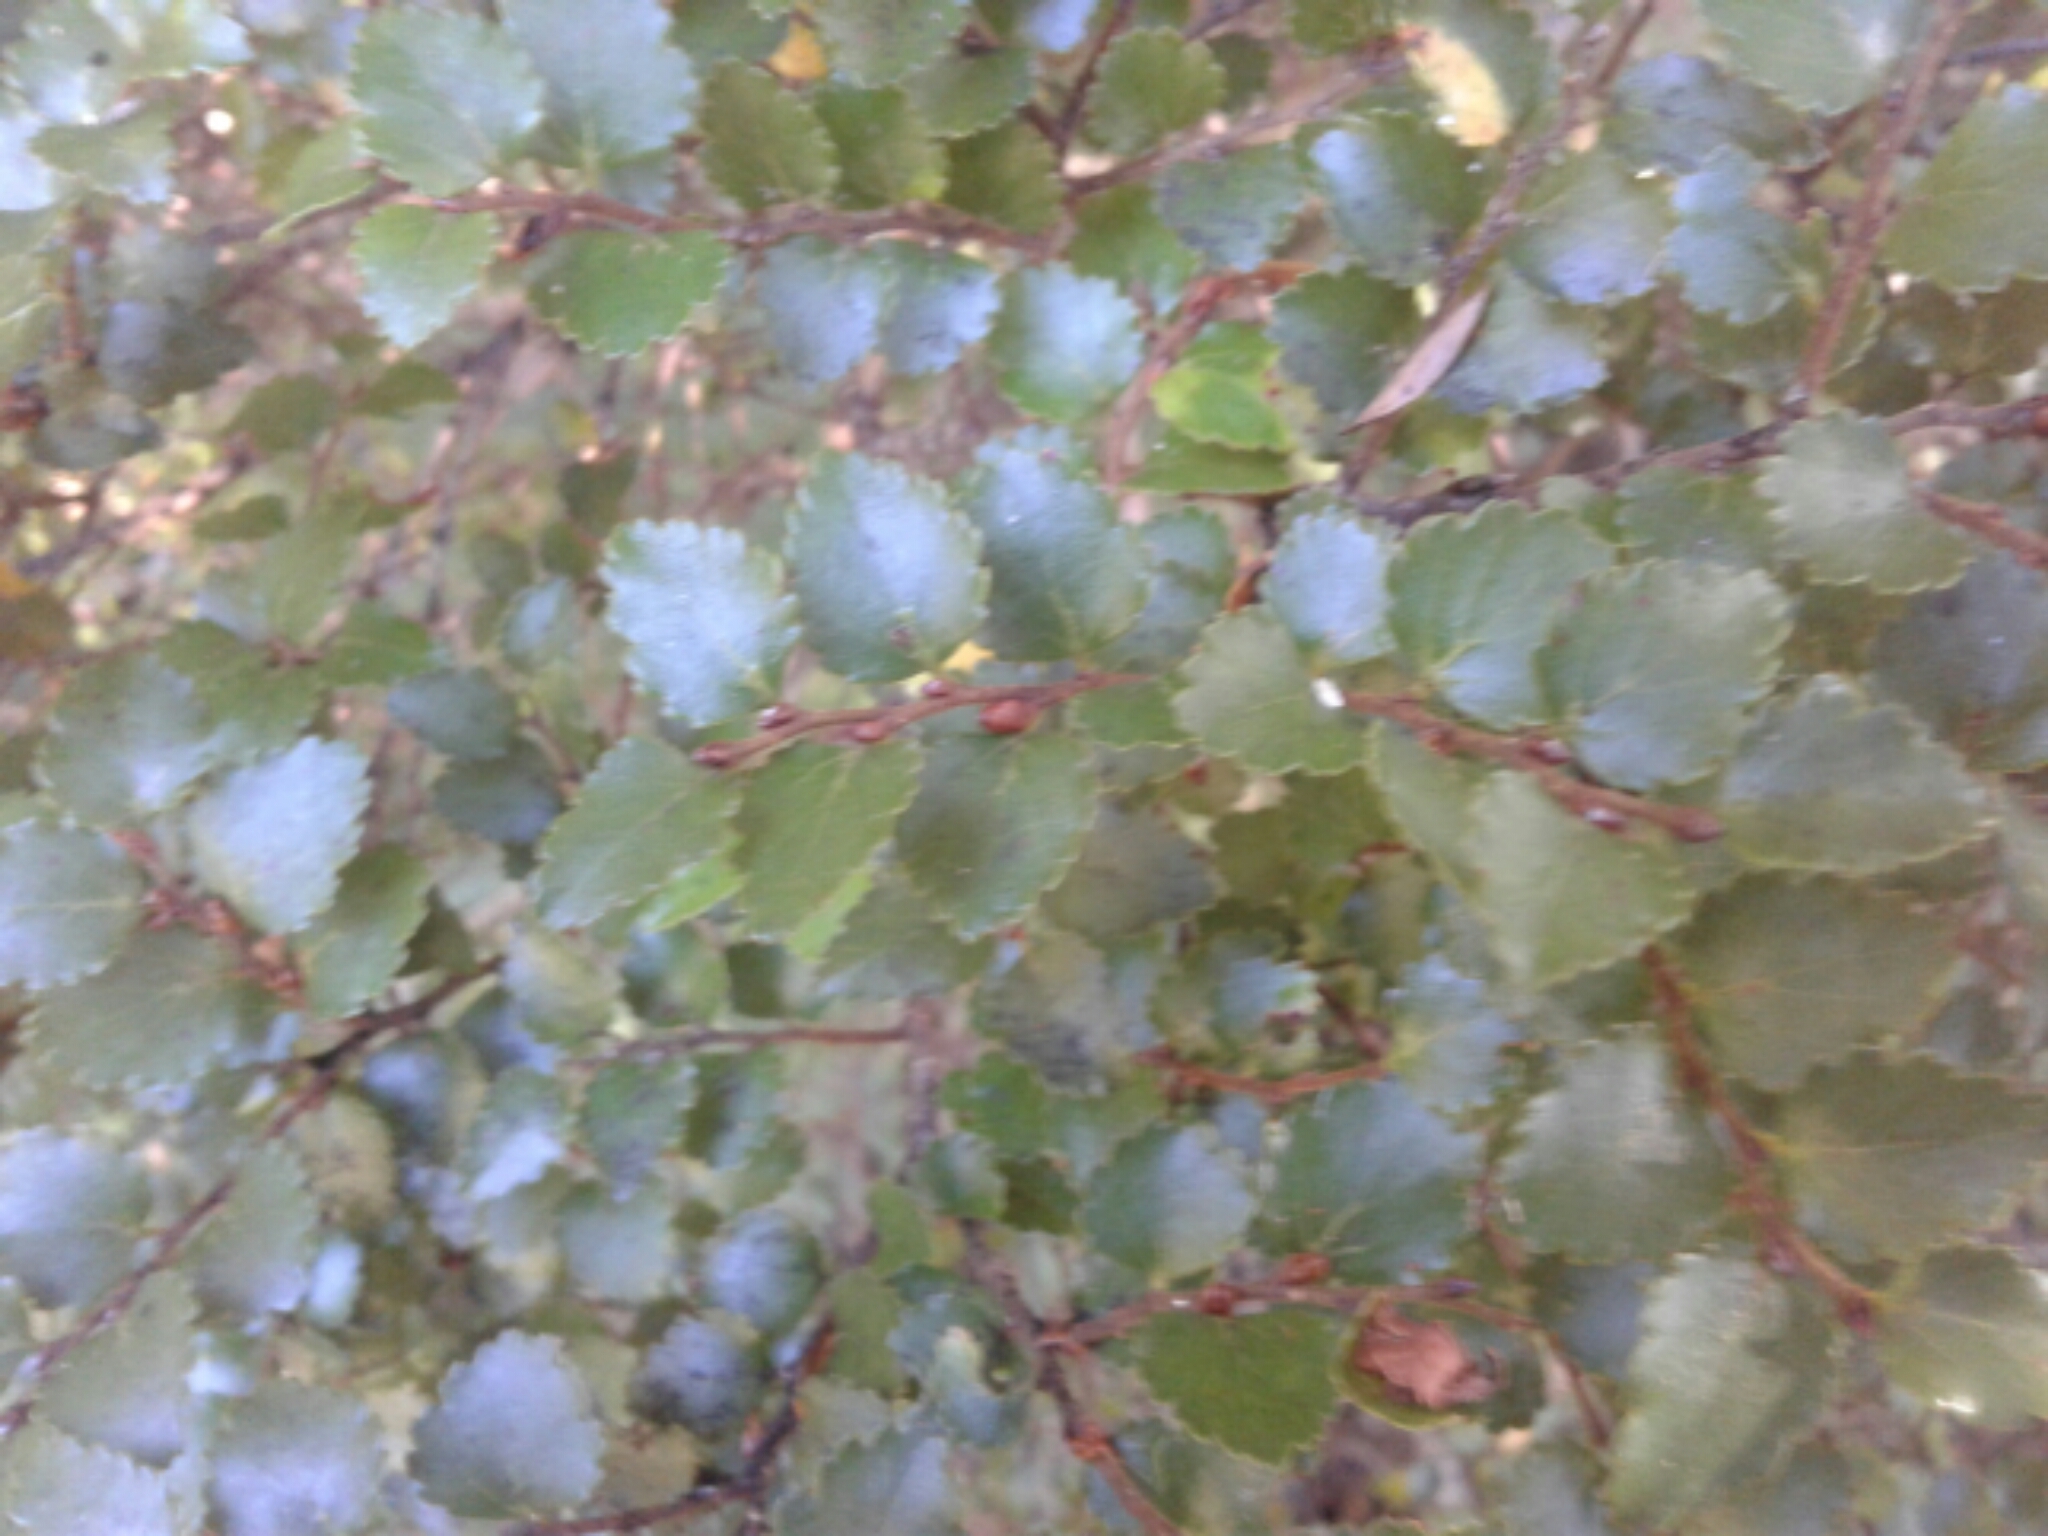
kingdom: Plantae
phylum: Tracheophyta
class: Magnoliopsida
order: Fagales
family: Nothofagaceae
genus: Nothofagus
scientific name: Nothofagus menziesii
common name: Silver beech
